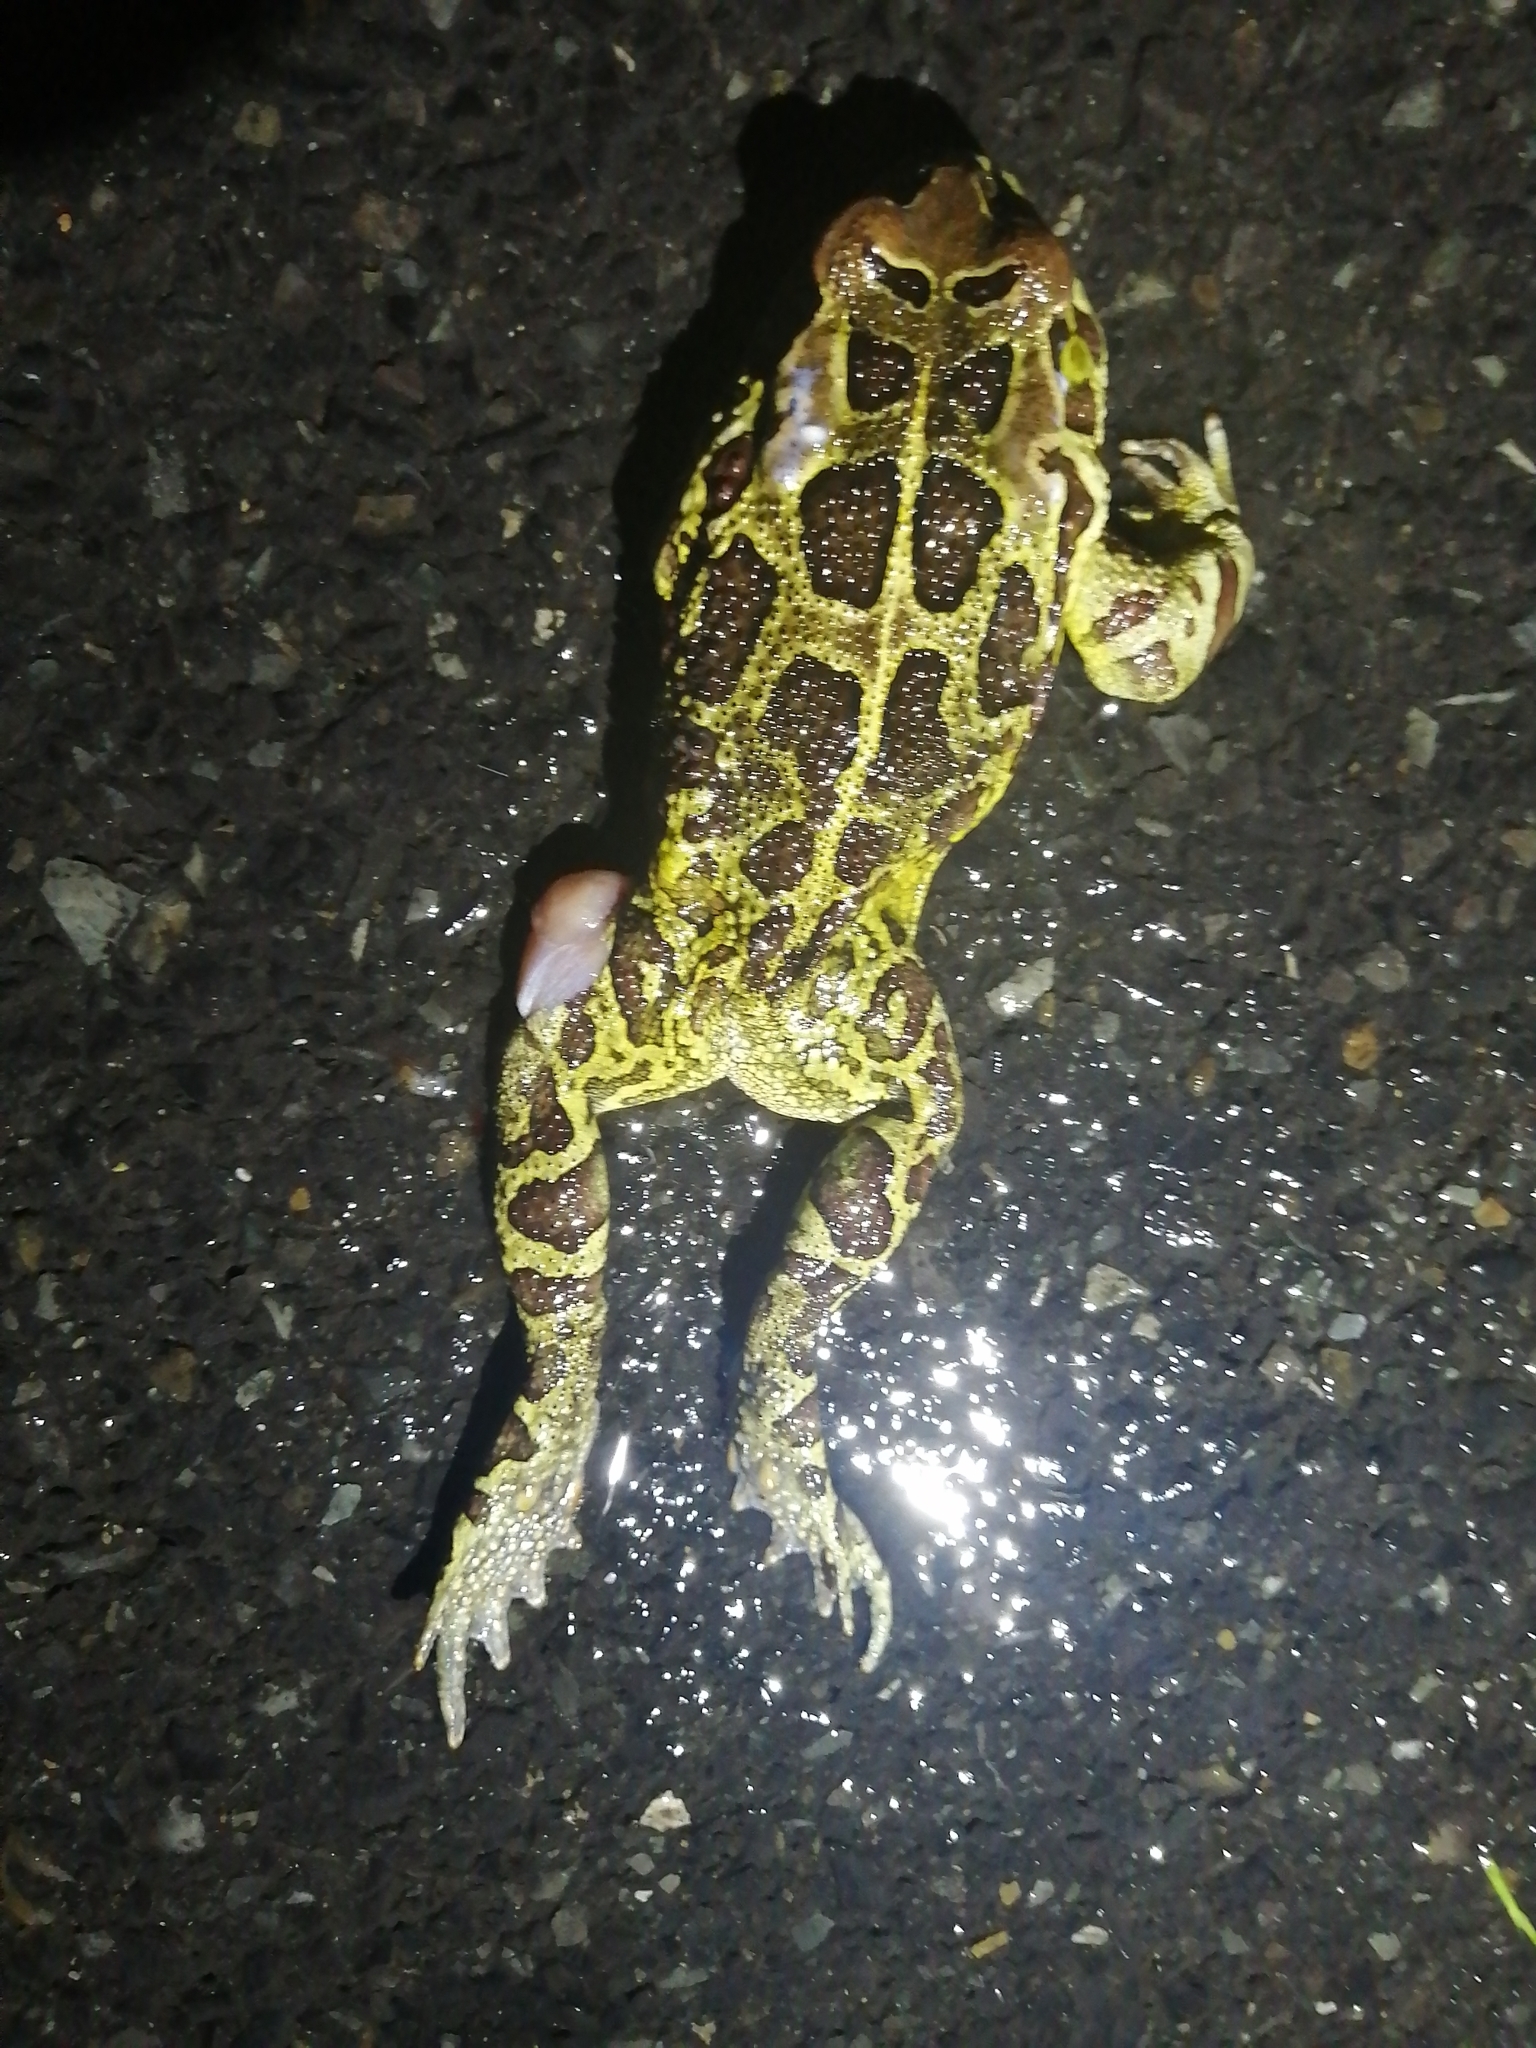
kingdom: Animalia
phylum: Chordata
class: Amphibia
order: Anura
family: Bufonidae
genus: Sclerophrys
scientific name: Sclerophrys pantherina
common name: Panther toad
